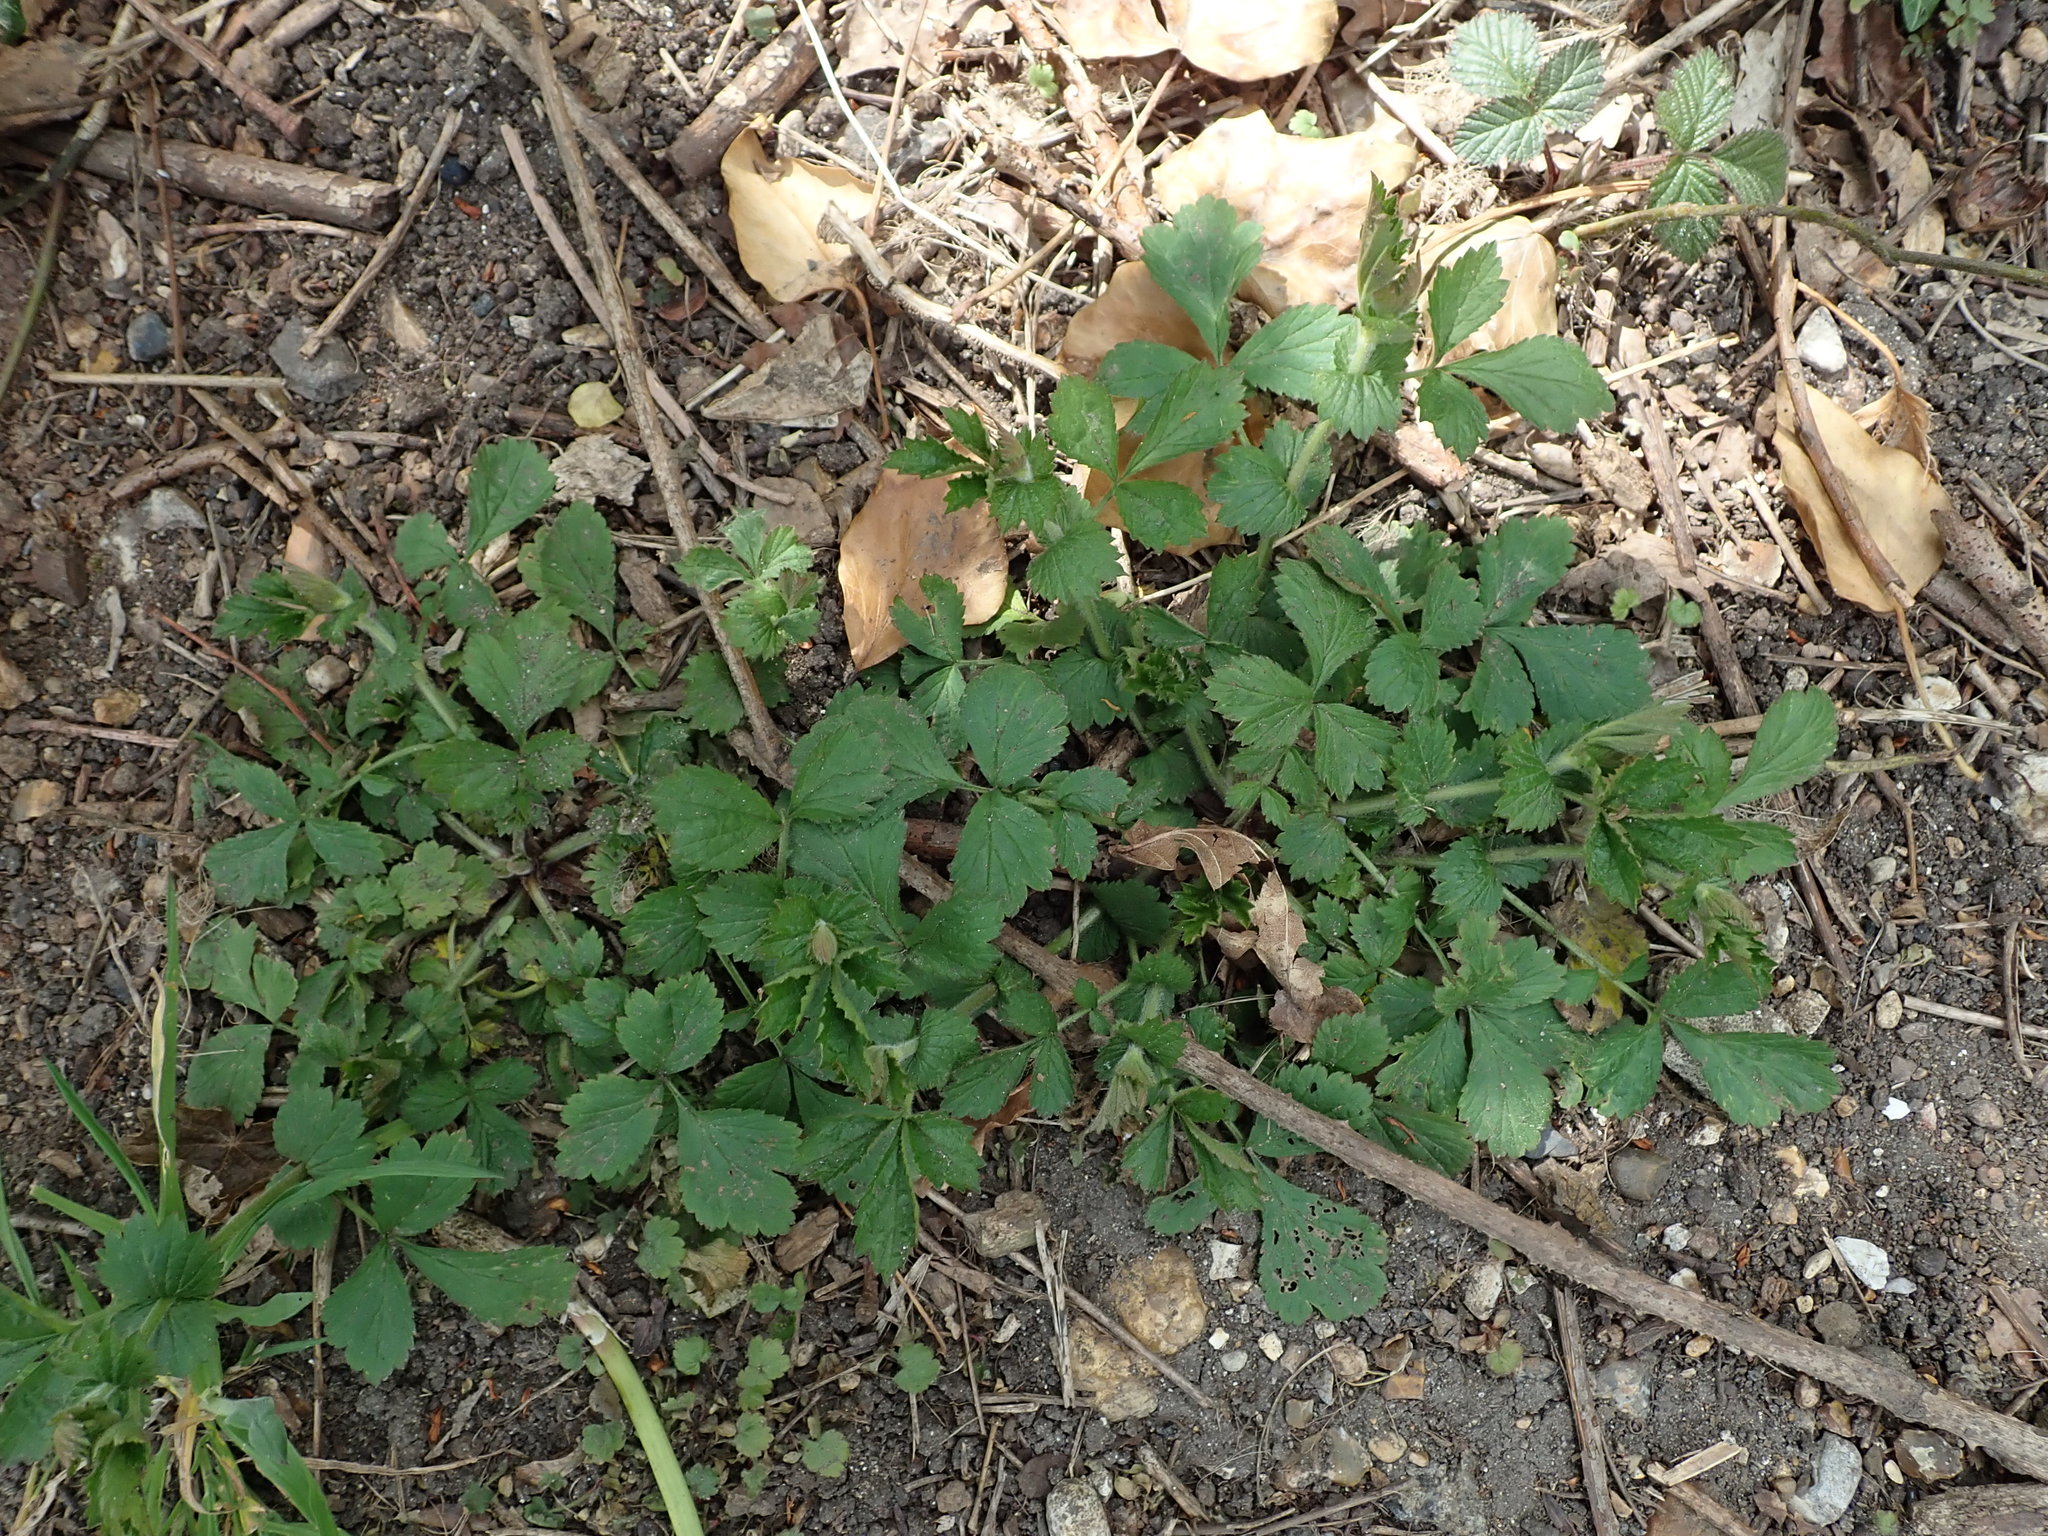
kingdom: Plantae
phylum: Tracheophyta
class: Magnoliopsida
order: Rosales
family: Rosaceae
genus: Geum
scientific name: Geum urbanum
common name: Wood avens
